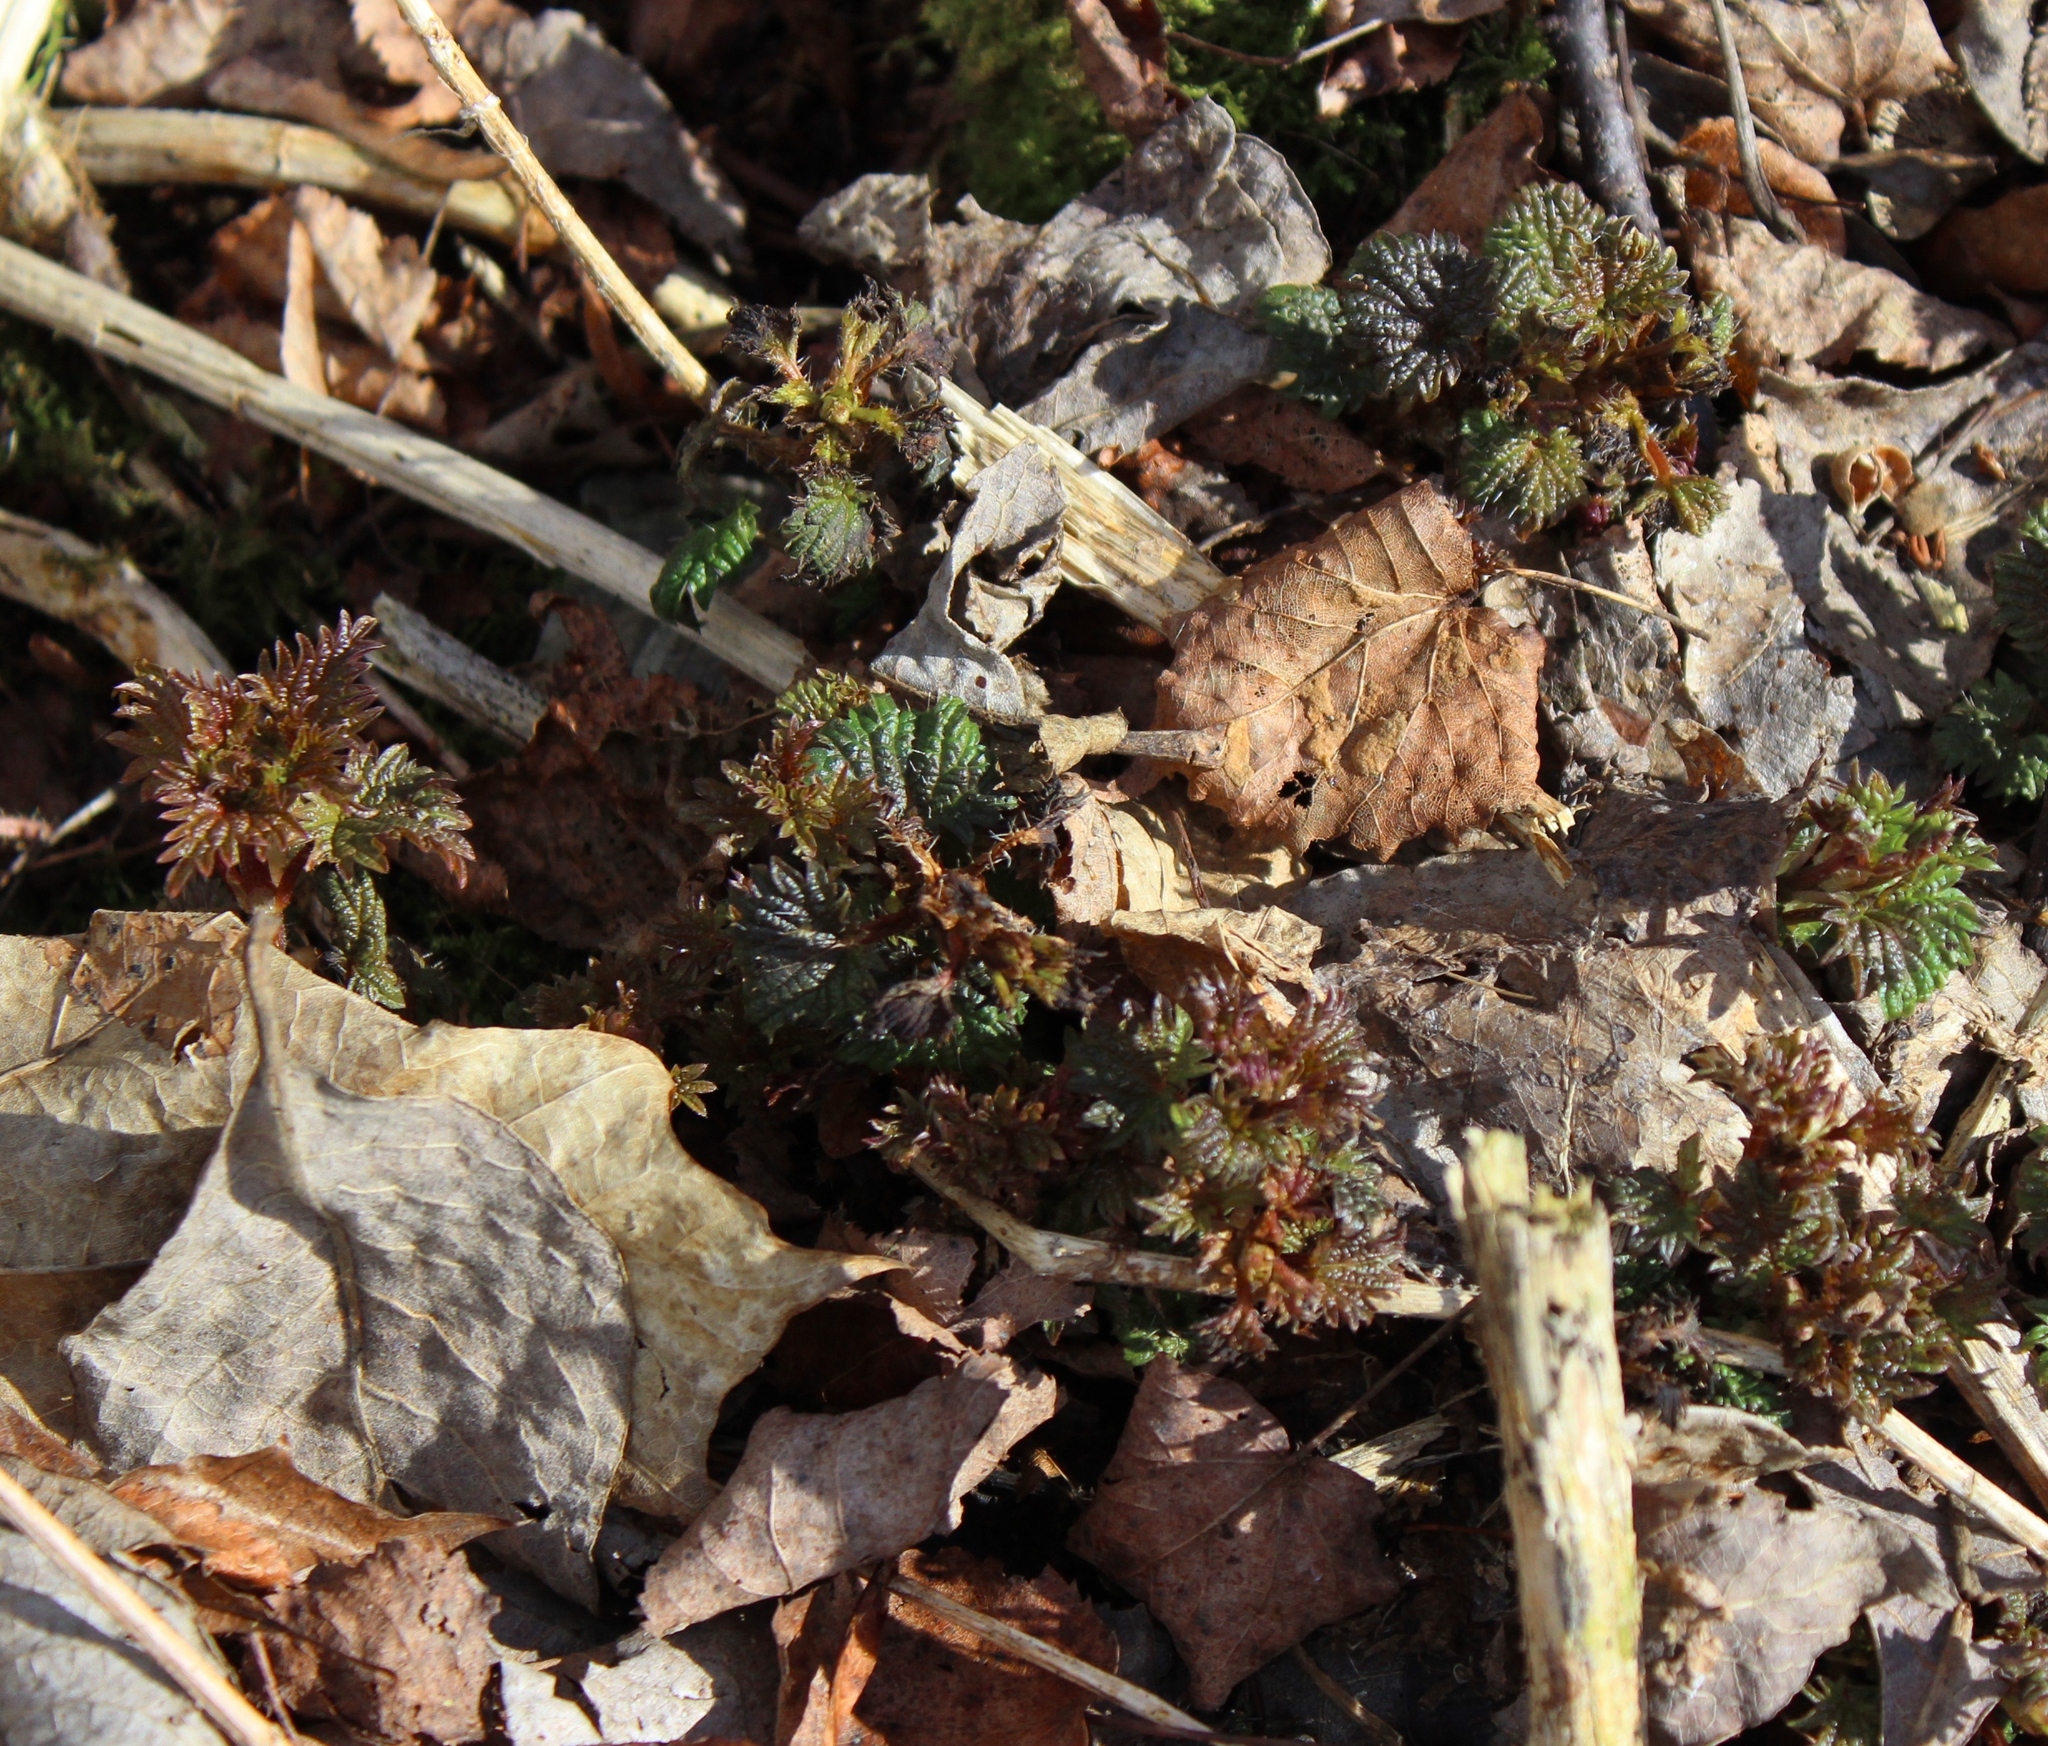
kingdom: Plantae
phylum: Tracheophyta
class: Magnoliopsida
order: Rosales
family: Urticaceae
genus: Urtica
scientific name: Urtica dioica
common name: Common nettle
